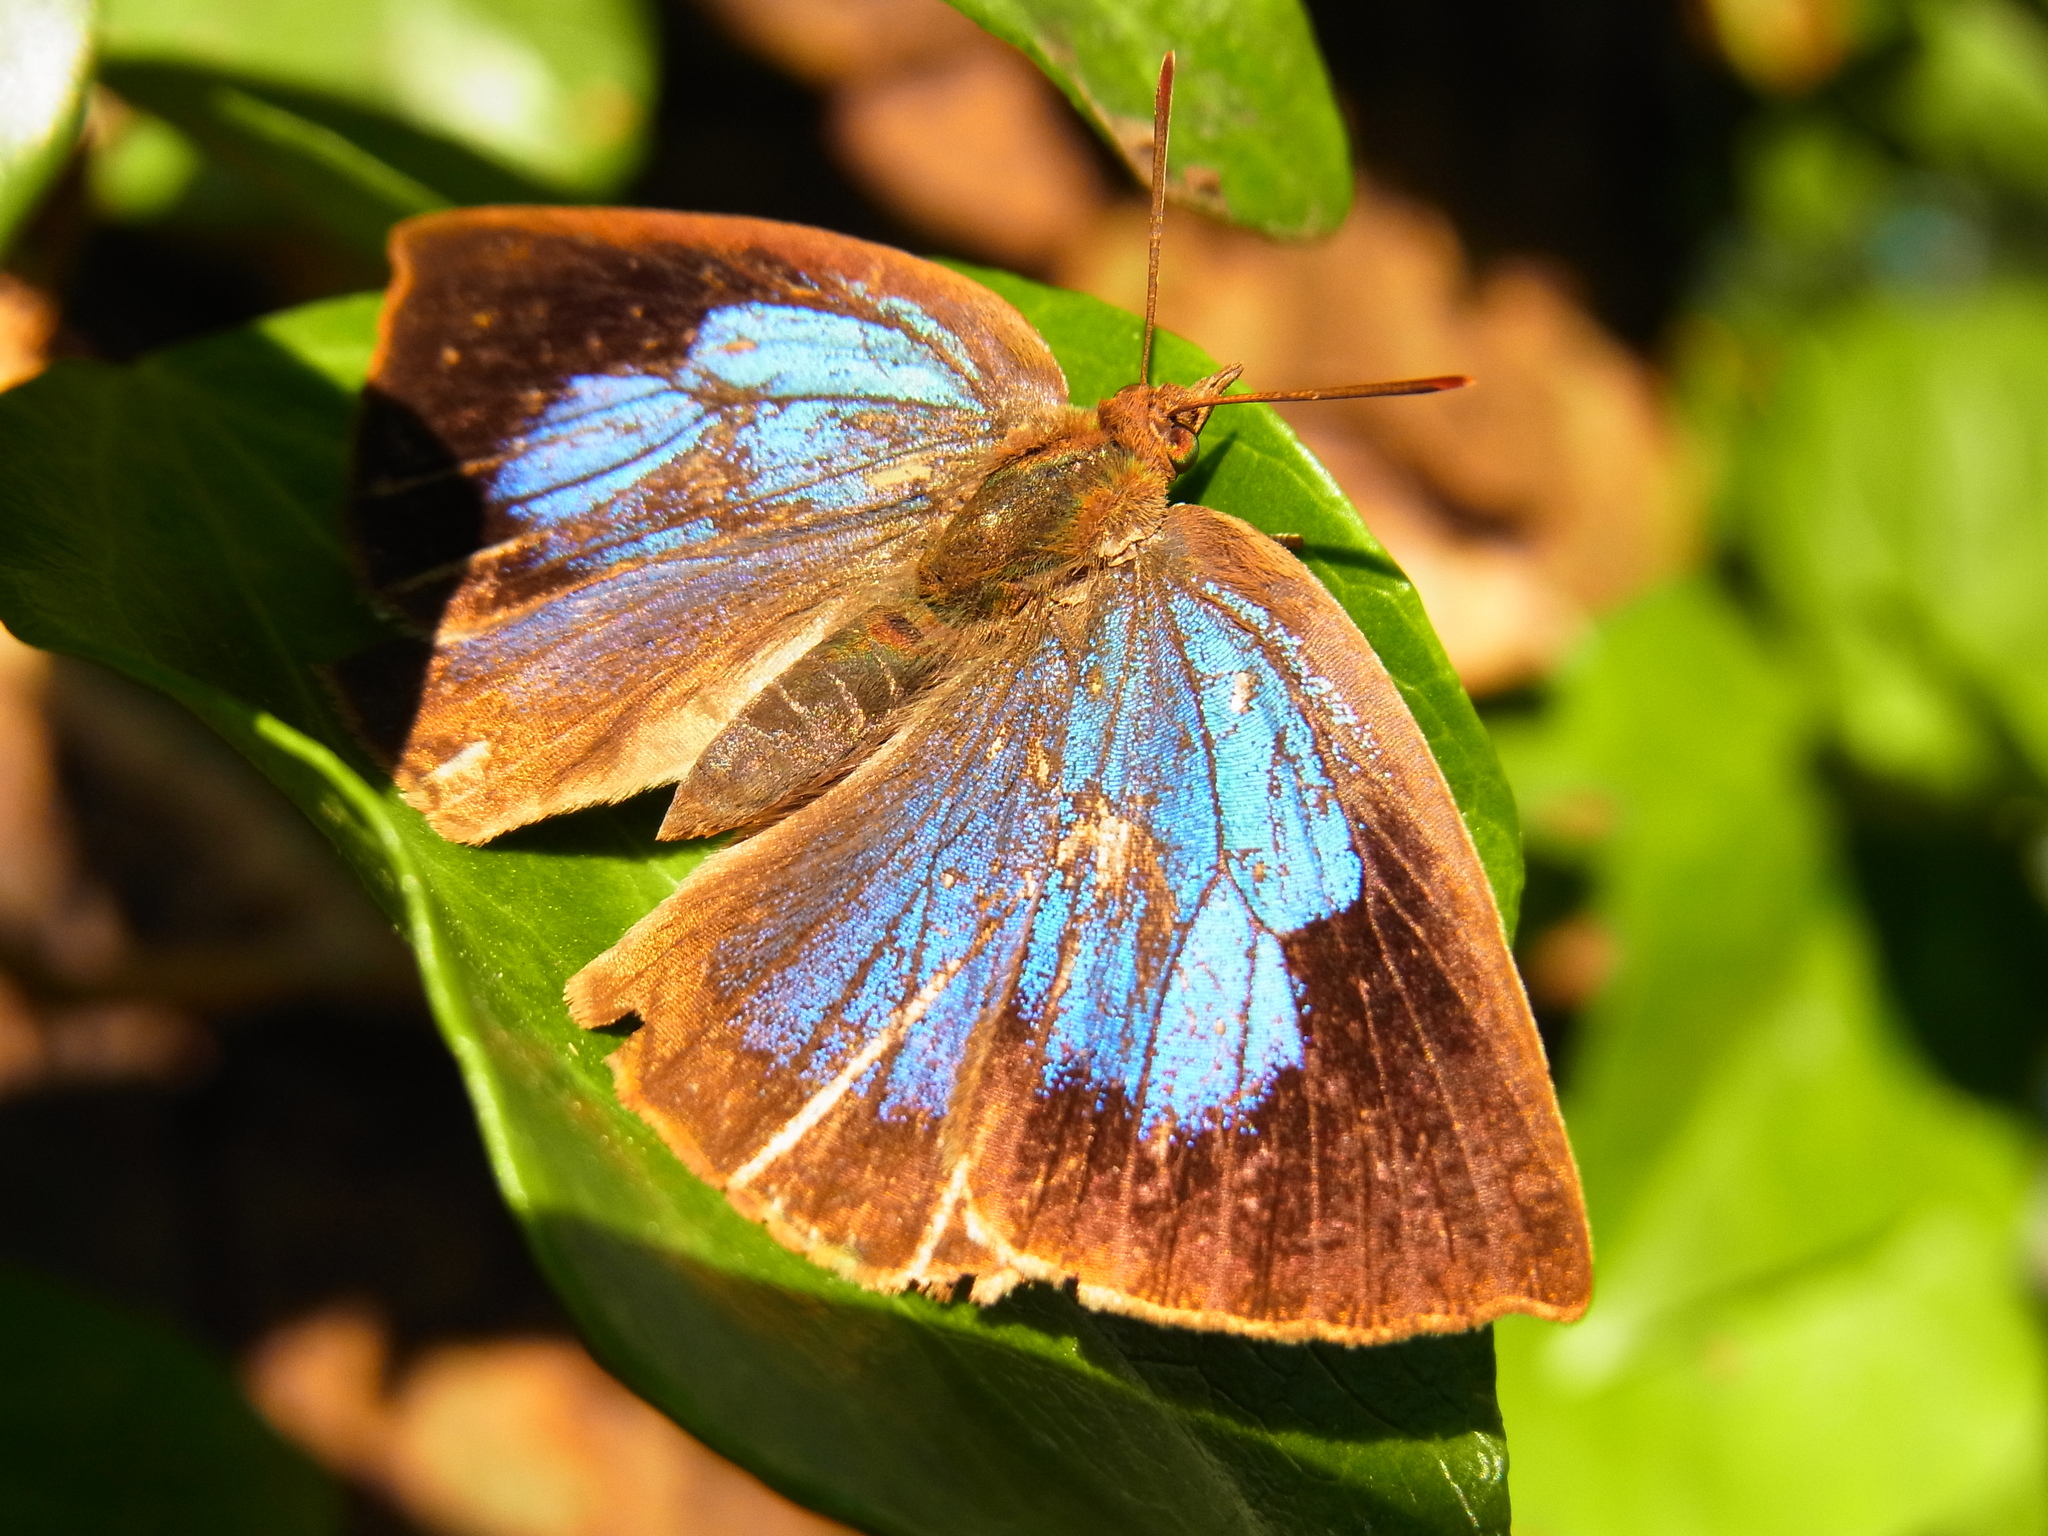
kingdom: Animalia
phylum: Arthropoda
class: Insecta
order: Lepidoptera
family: Lycaenidae
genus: Arhopala
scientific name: Arhopala japonica
